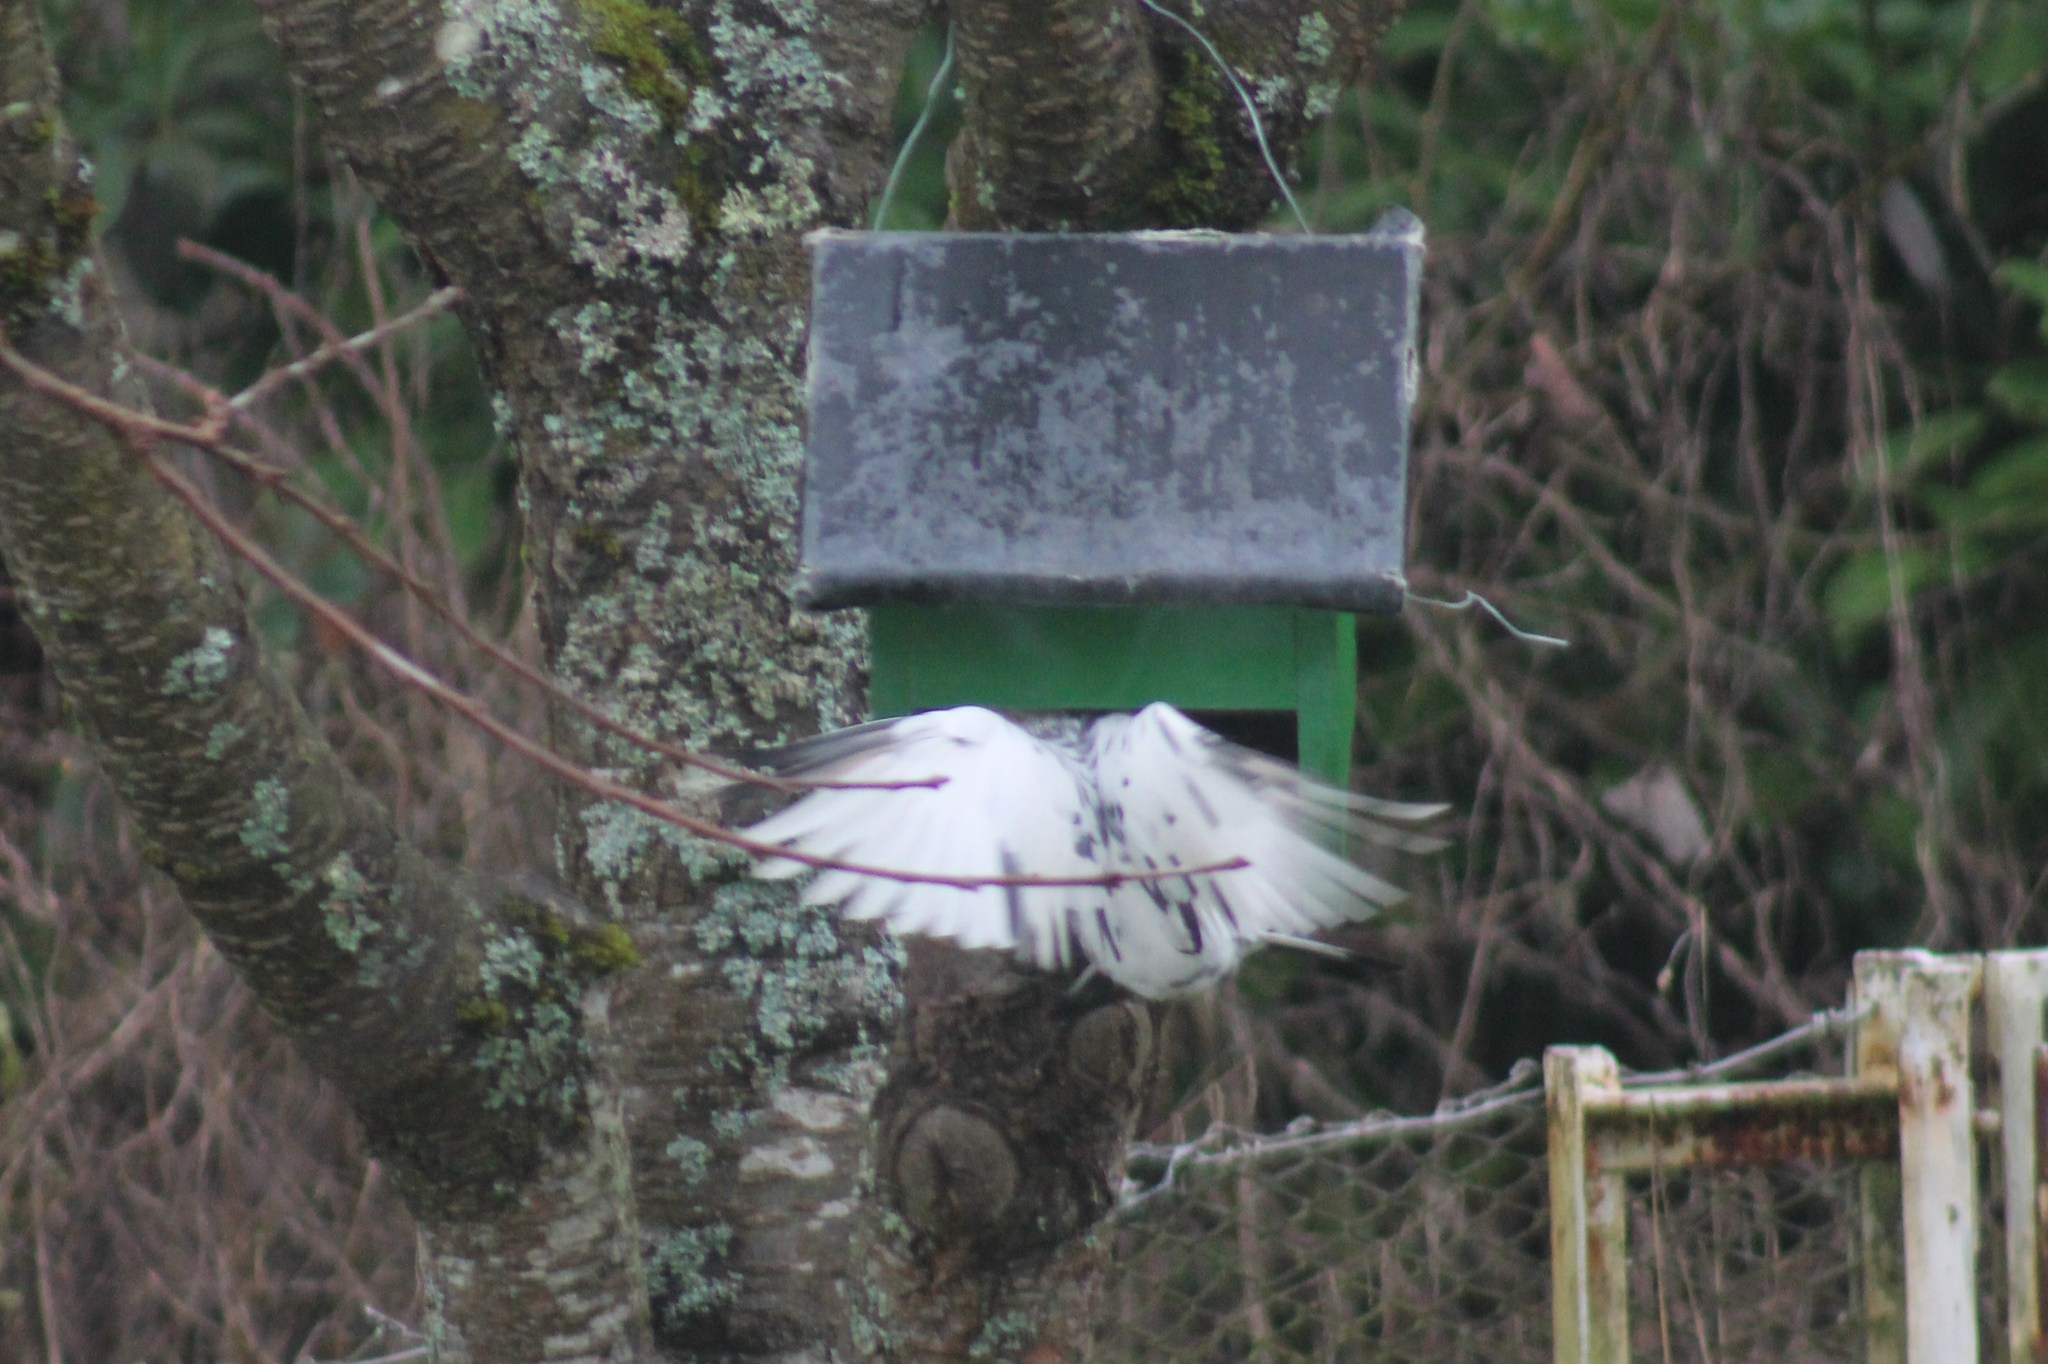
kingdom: Animalia
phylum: Chordata
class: Aves
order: Columbiformes
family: Columbidae
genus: Columba
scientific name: Columba livia
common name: Rock pigeon
